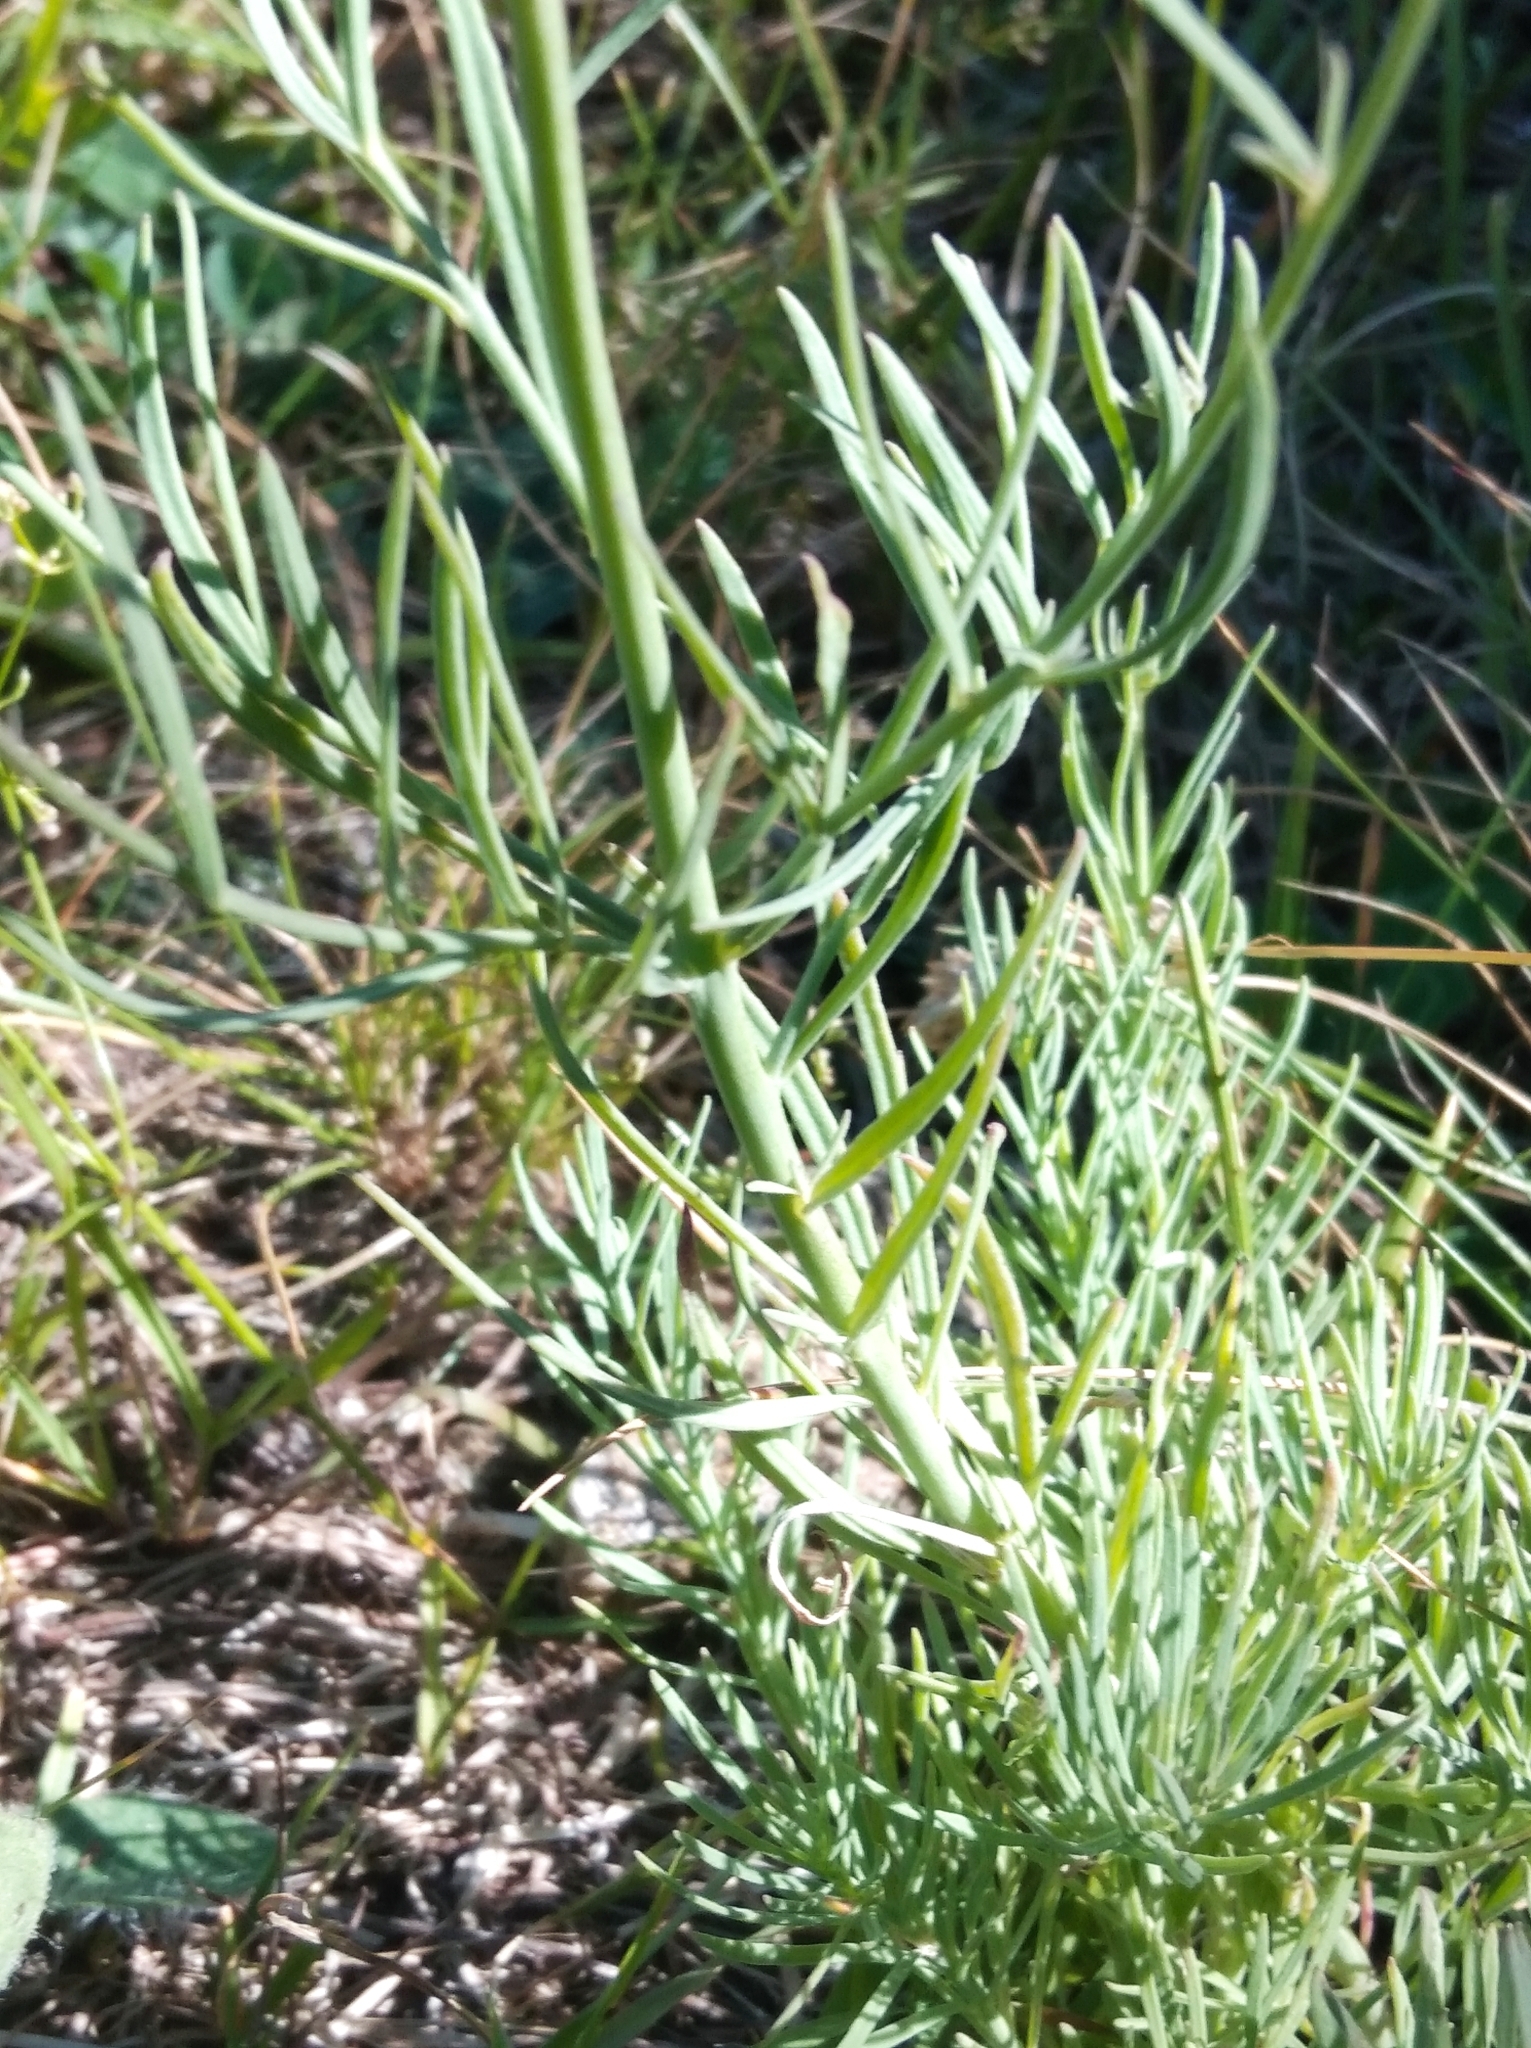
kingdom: Plantae
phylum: Tracheophyta
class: Magnoliopsida
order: Lamiales
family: Plantaginaceae
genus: Linaria
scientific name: Linaria repens
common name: Pale toadflax
